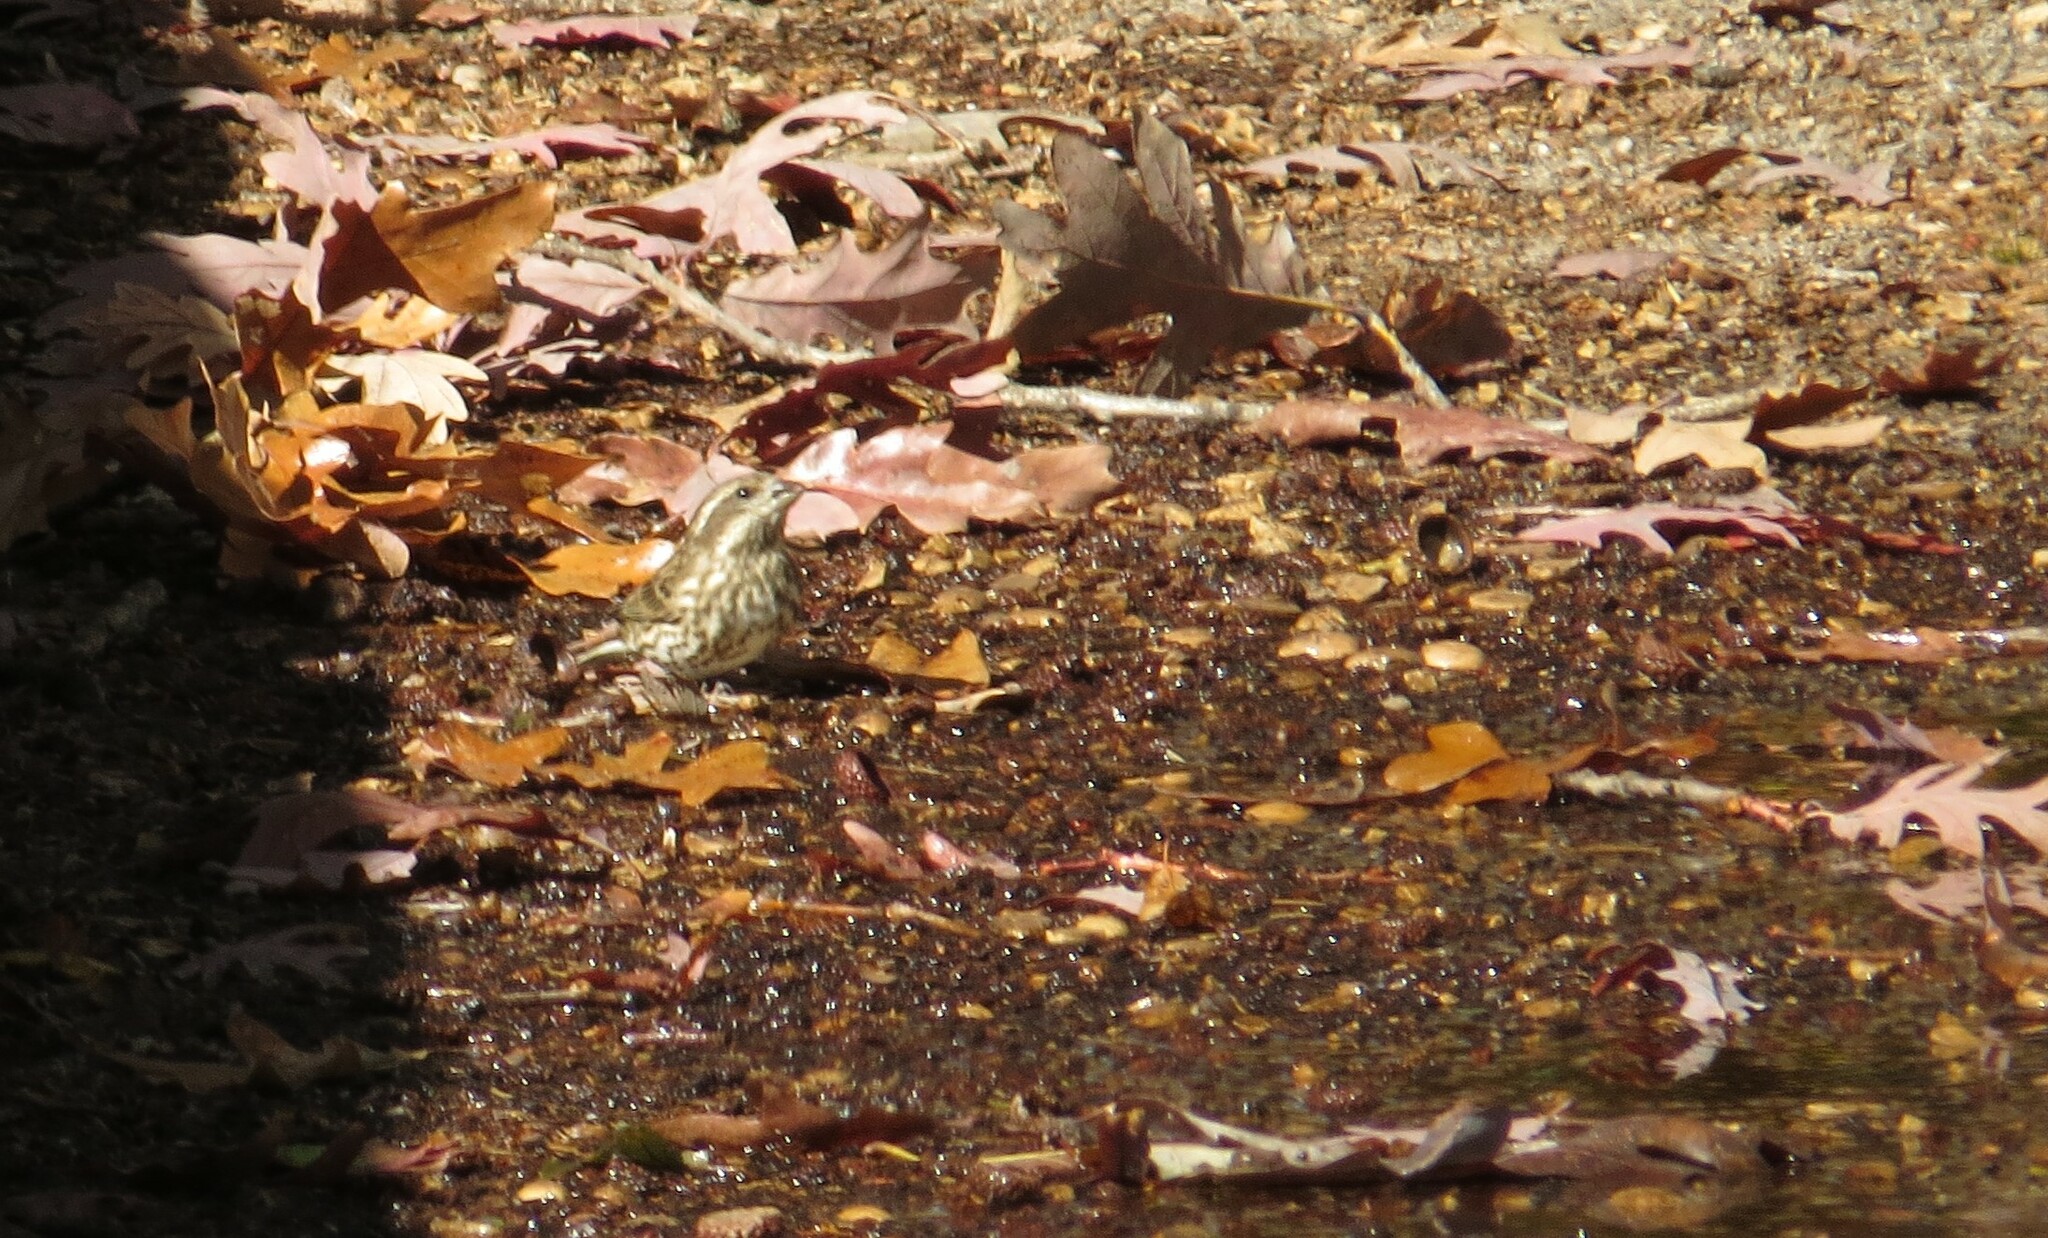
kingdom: Animalia
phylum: Chordata
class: Aves
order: Passeriformes
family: Fringillidae
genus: Haemorhous
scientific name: Haemorhous purpureus
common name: Purple finch
